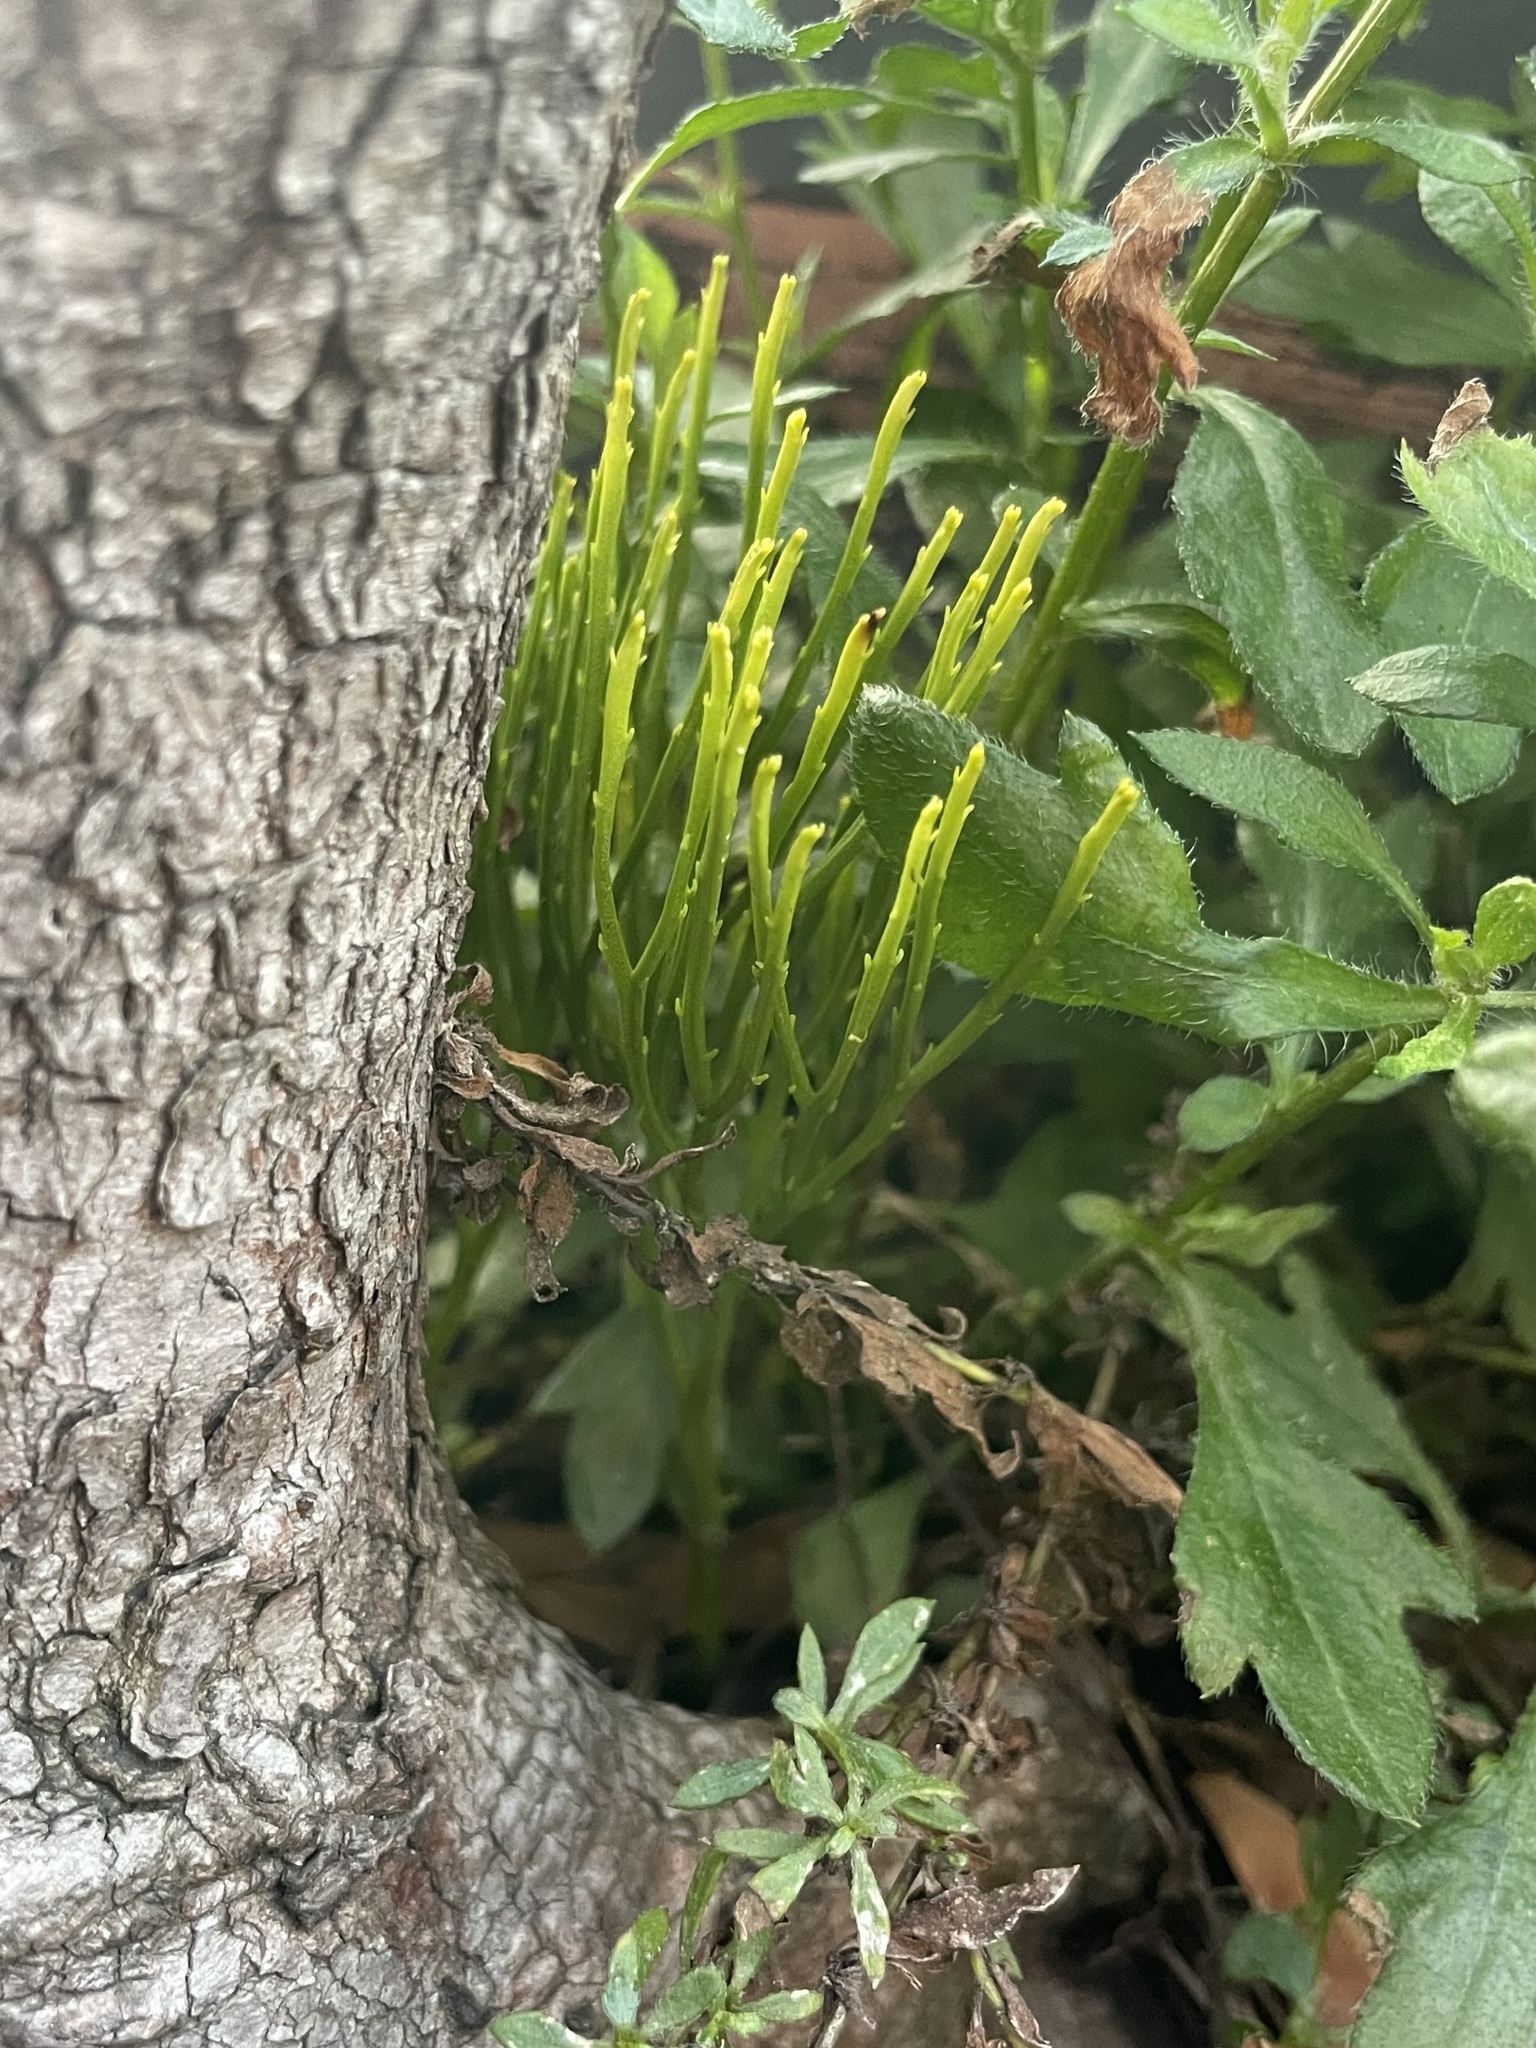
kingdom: Plantae
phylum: Tracheophyta
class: Polypodiopsida
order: Psilotales
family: Psilotaceae
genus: Psilotum
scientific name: Psilotum nudum
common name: Skeleton fork fern
